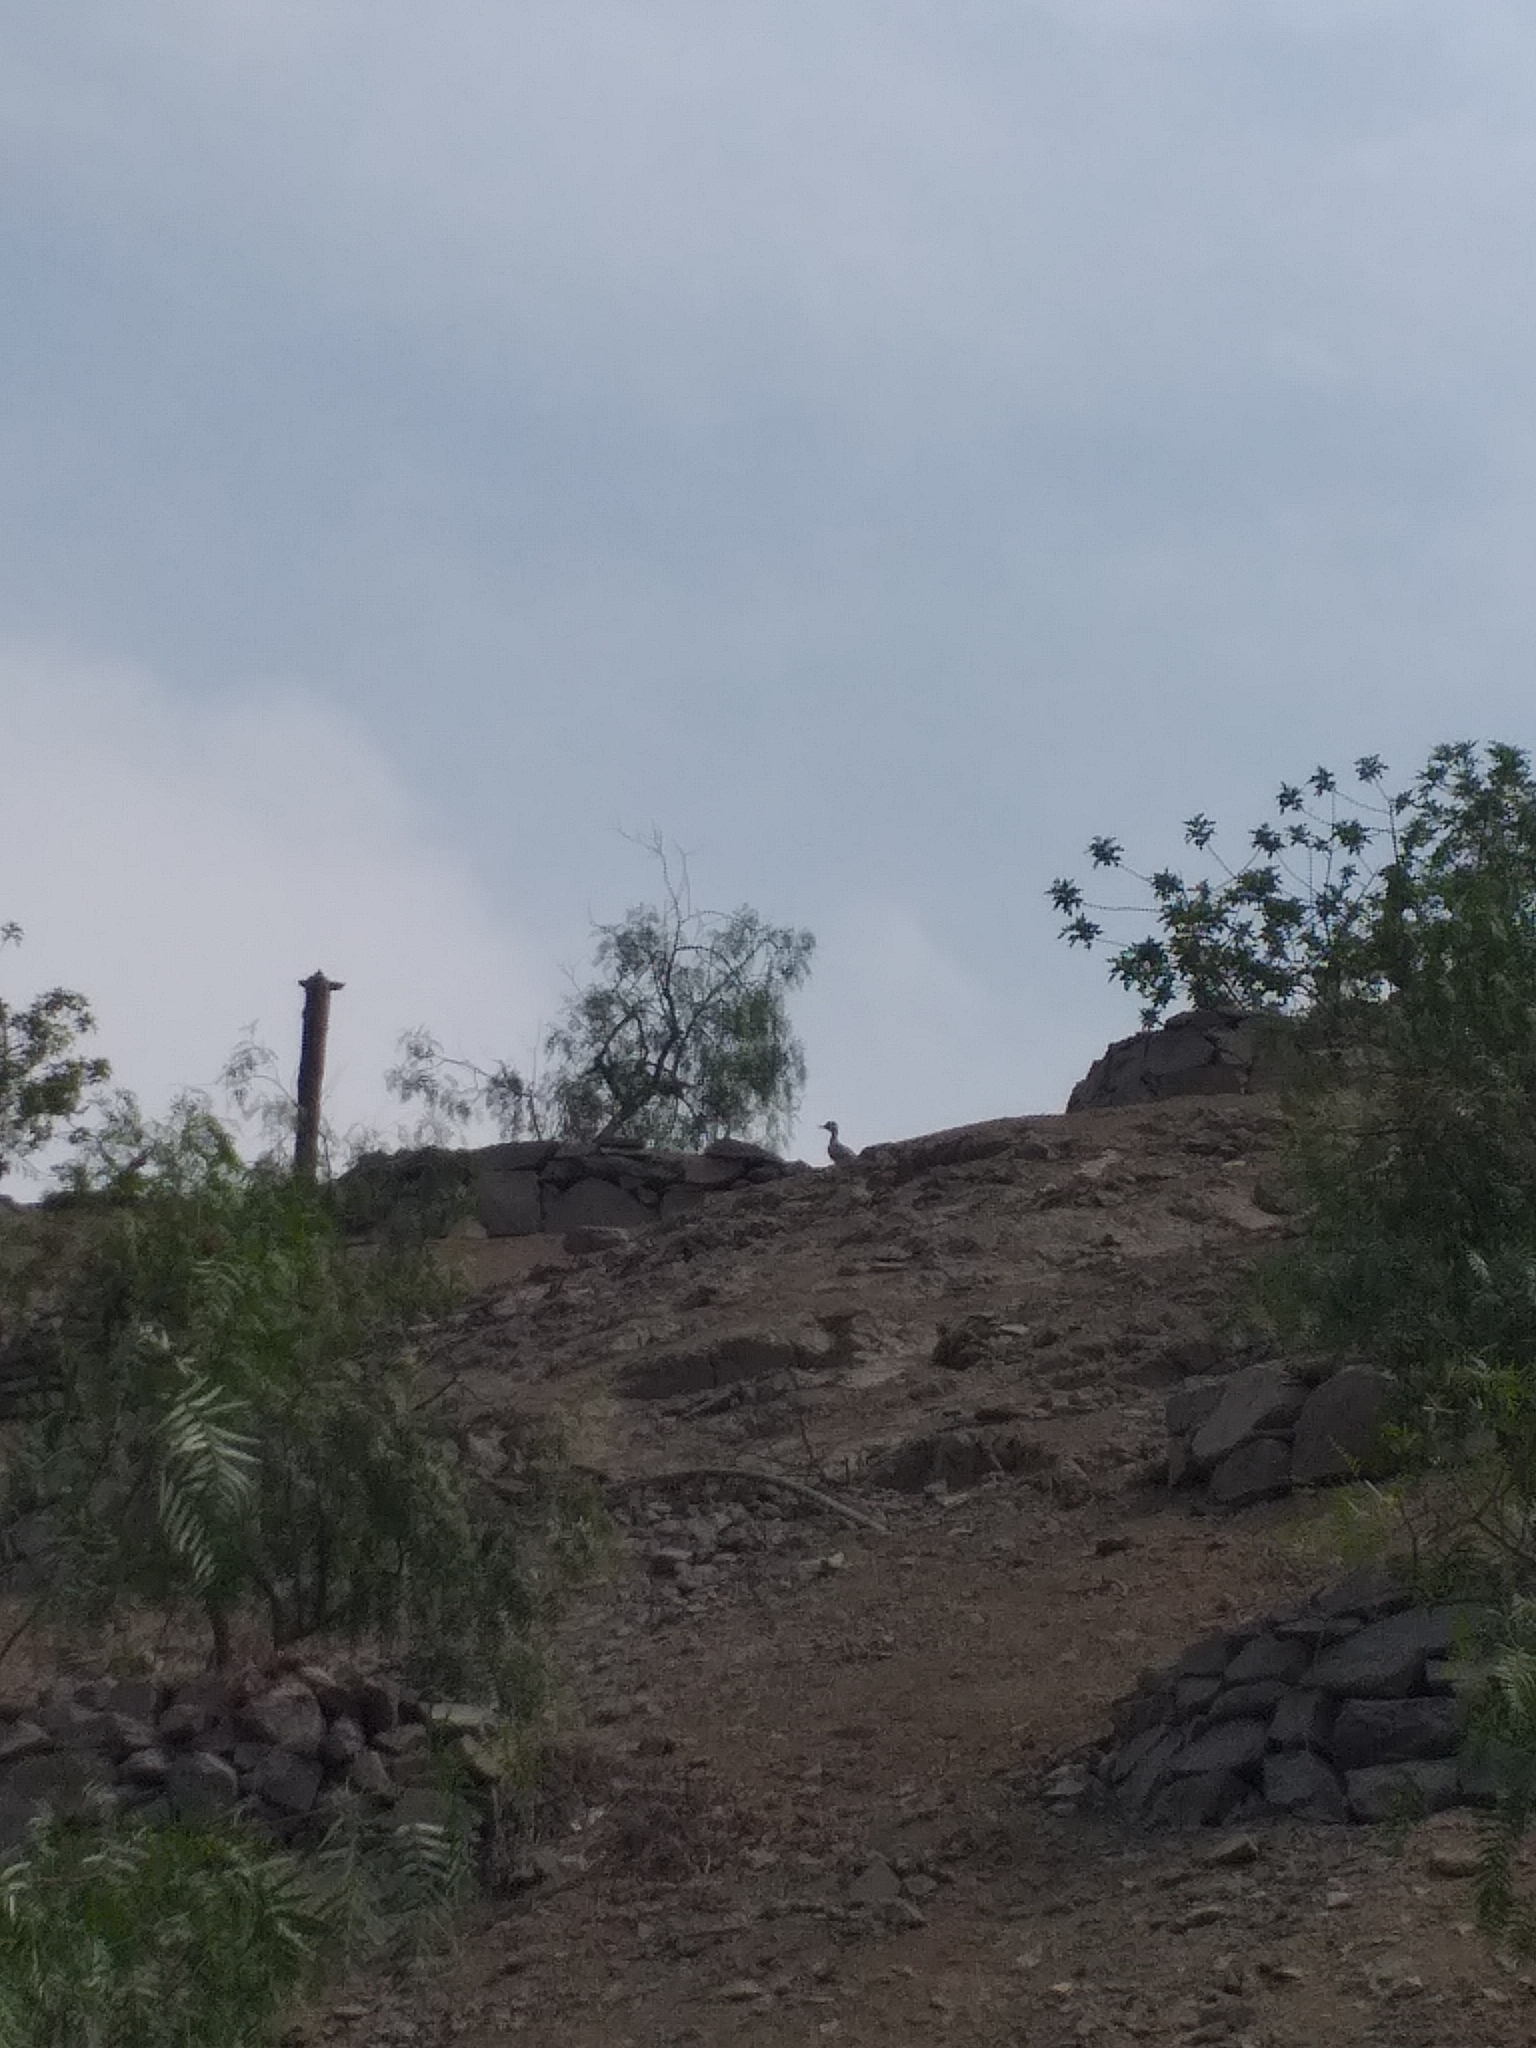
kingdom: Animalia
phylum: Chordata
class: Aves
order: Charadriiformes
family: Burhinidae
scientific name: Burhinidae
